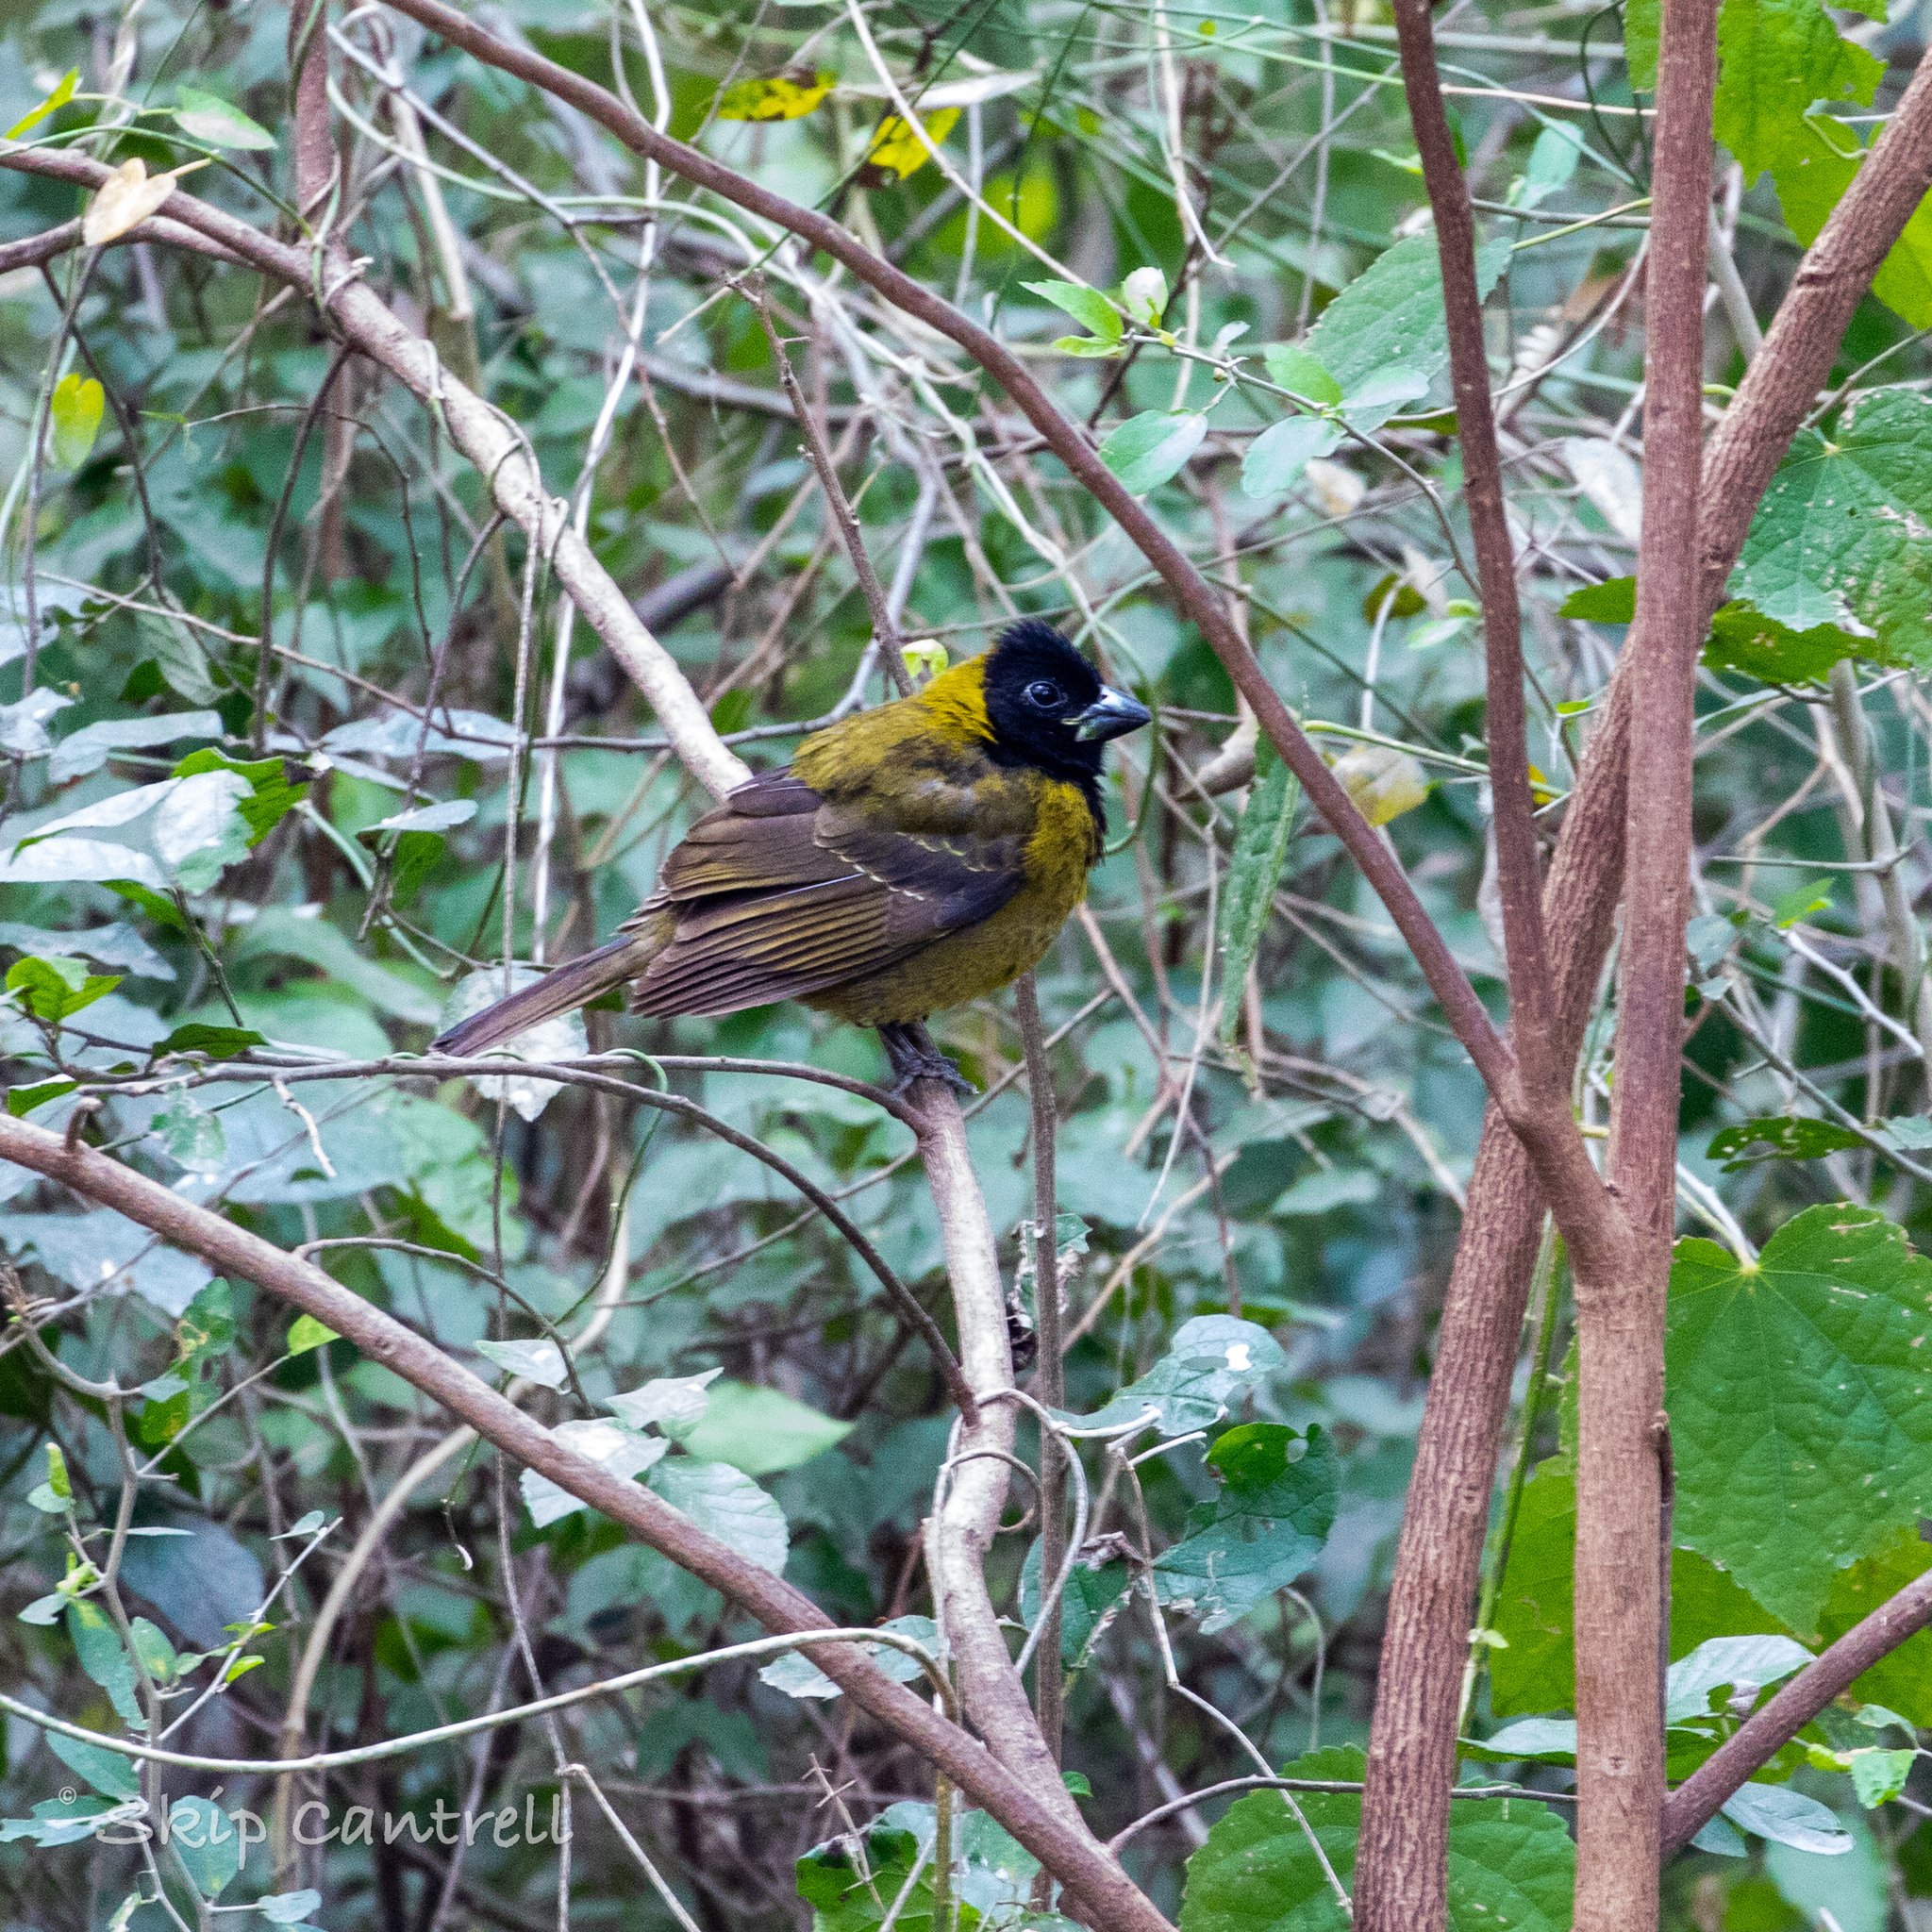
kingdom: Animalia
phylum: Chordata
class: Aves
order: Passeriformes
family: Cardinalidae
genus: Rhodothraupis
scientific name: Rhodothraupis celaeno
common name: Crimson-collared grosbeak
